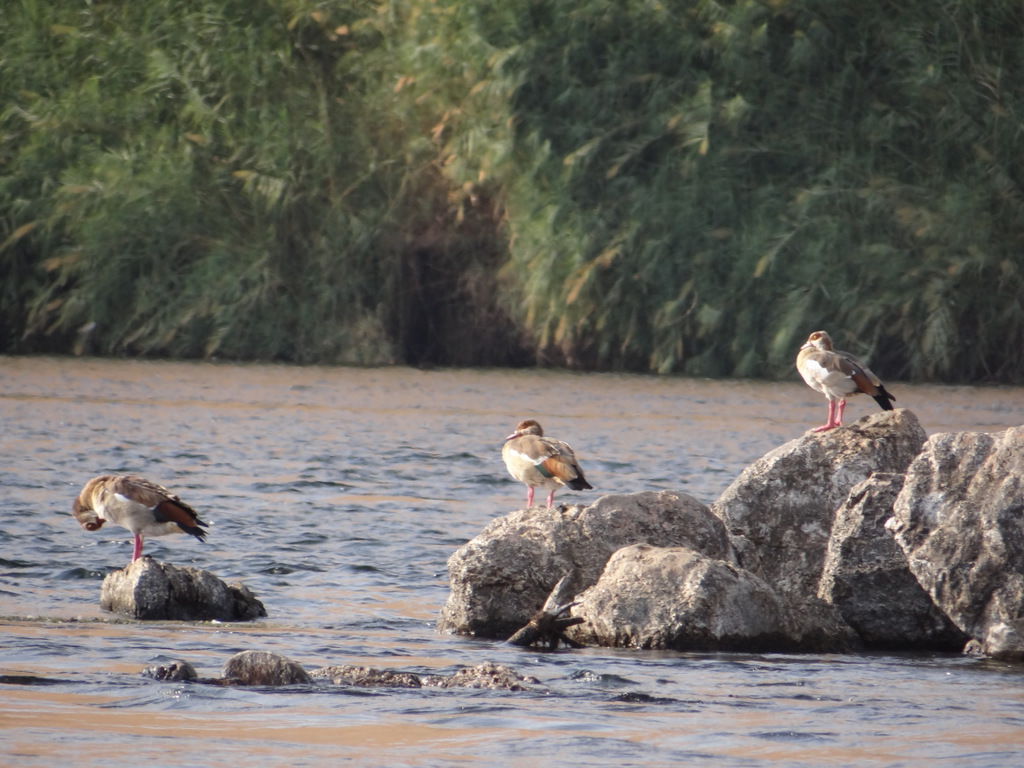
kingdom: Animalia
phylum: Chordata
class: Aves
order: Anseriformes
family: Anatidae
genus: Alopochen
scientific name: Alopochen aegyptiaca
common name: Egyptian goose
